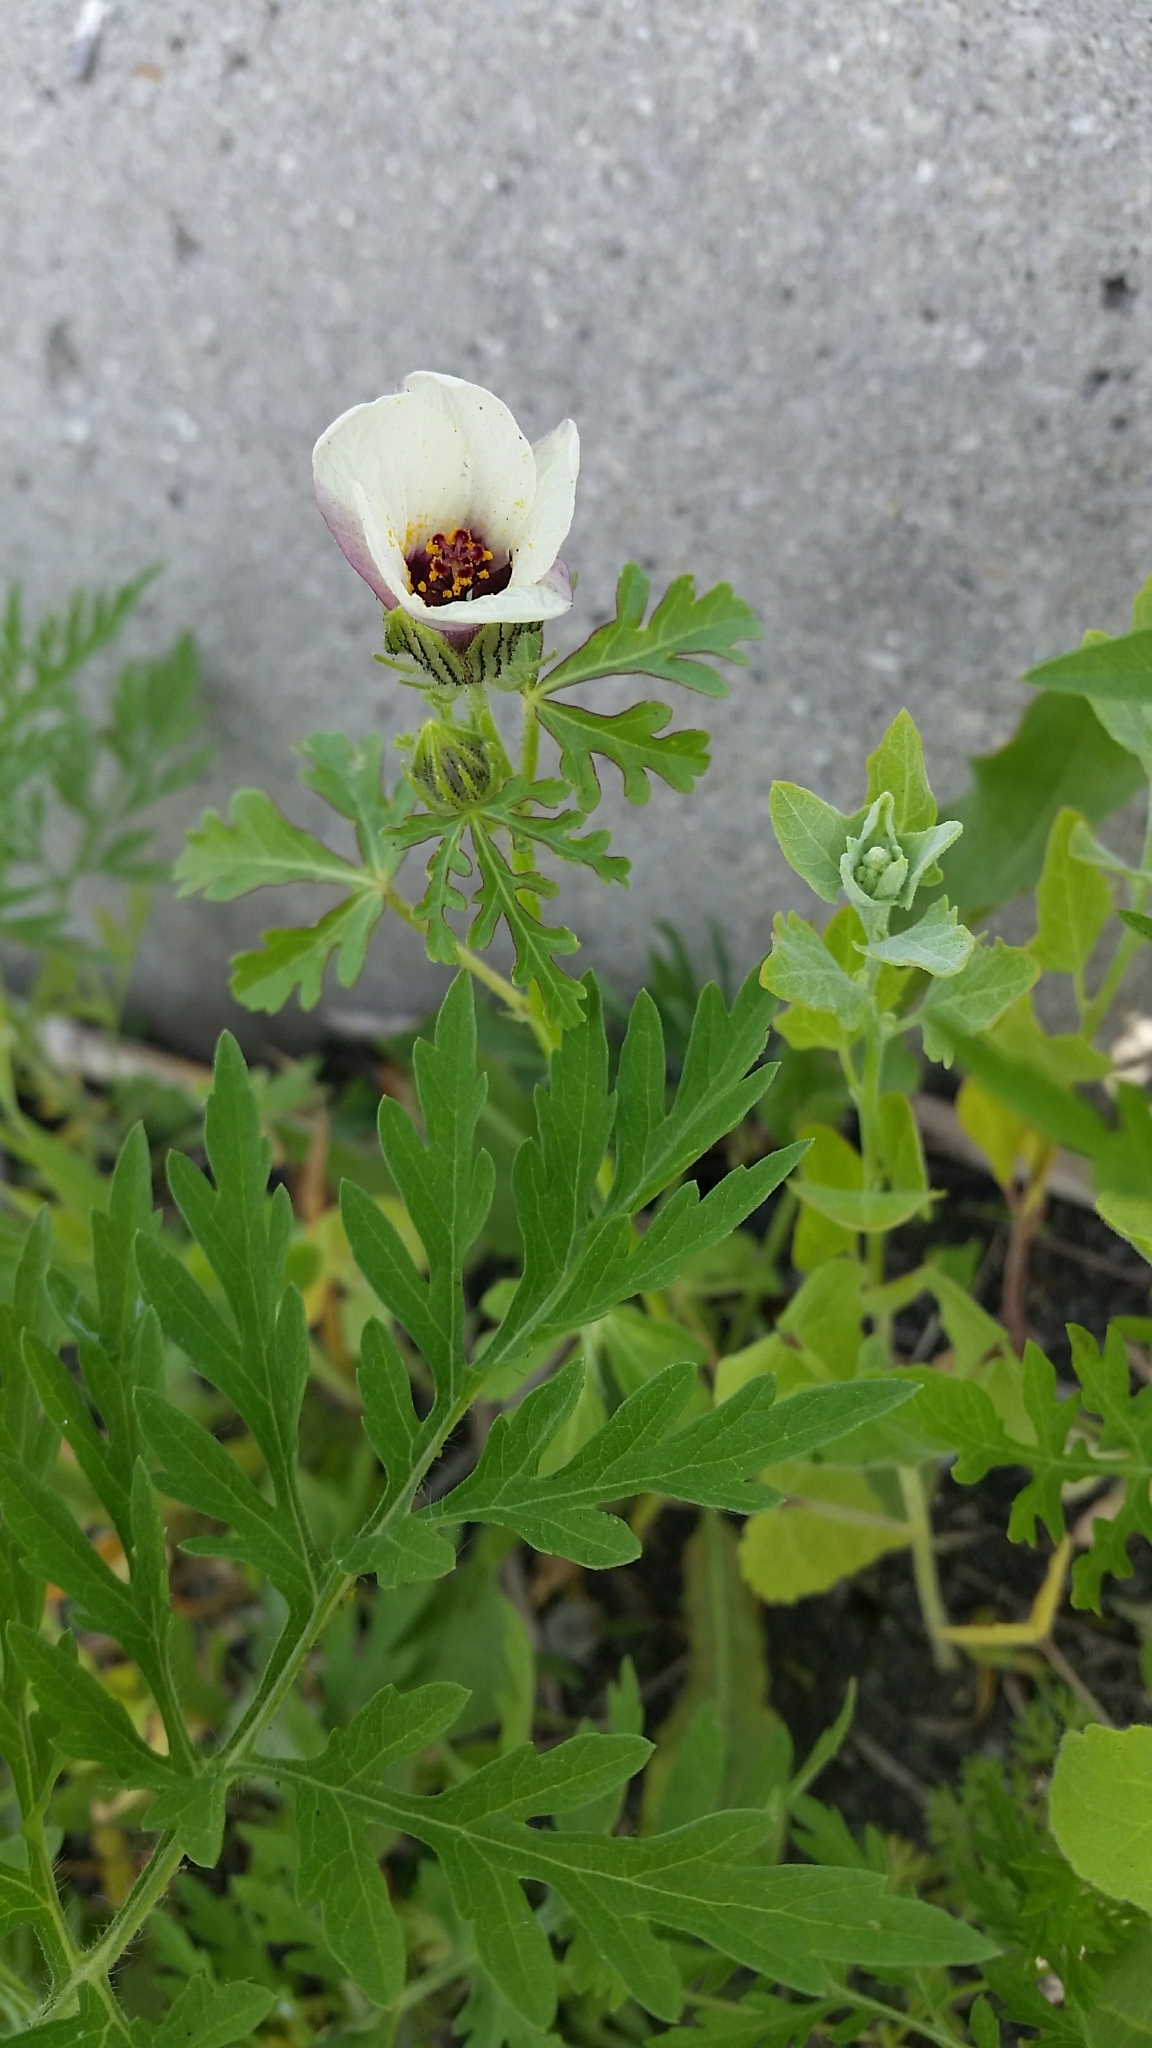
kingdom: Plantae
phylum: Tracheophyta
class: Magnoliopsida
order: Malvales
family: Malvaceae
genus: Hibiscus
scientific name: Hibiscus trionum
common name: Bladder ketmia
